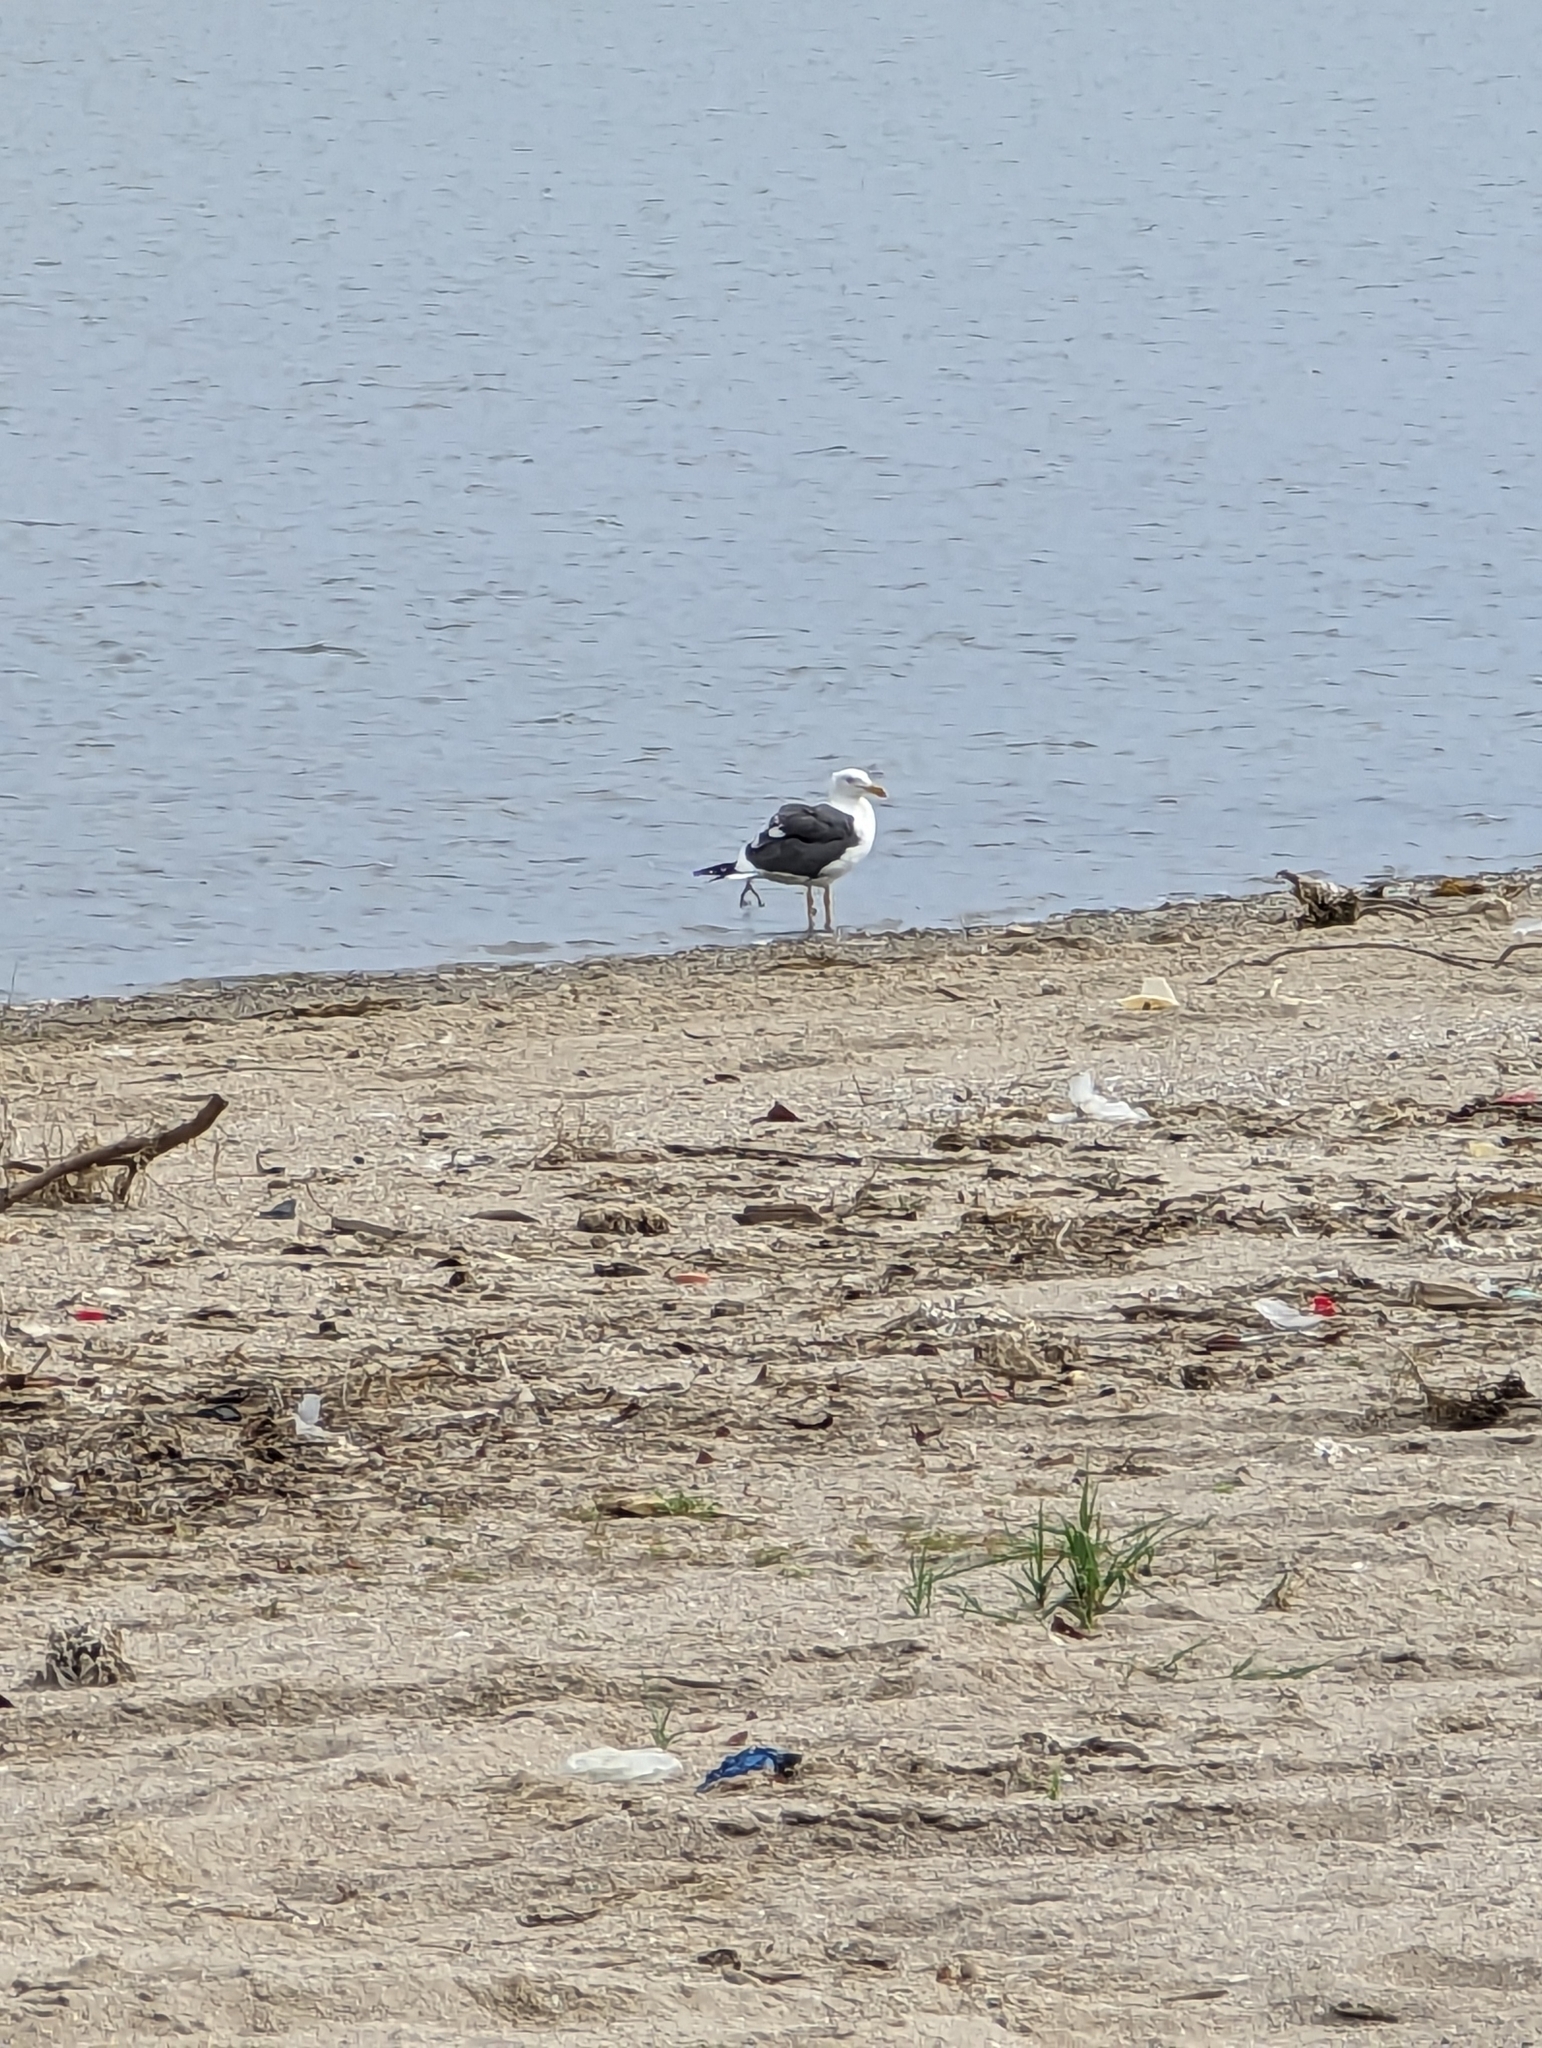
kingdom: Animalia
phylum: Chordata
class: Aves
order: Charadriiformes
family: Laridae
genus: Larus
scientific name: Larus livens
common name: Yellow-footed gull
